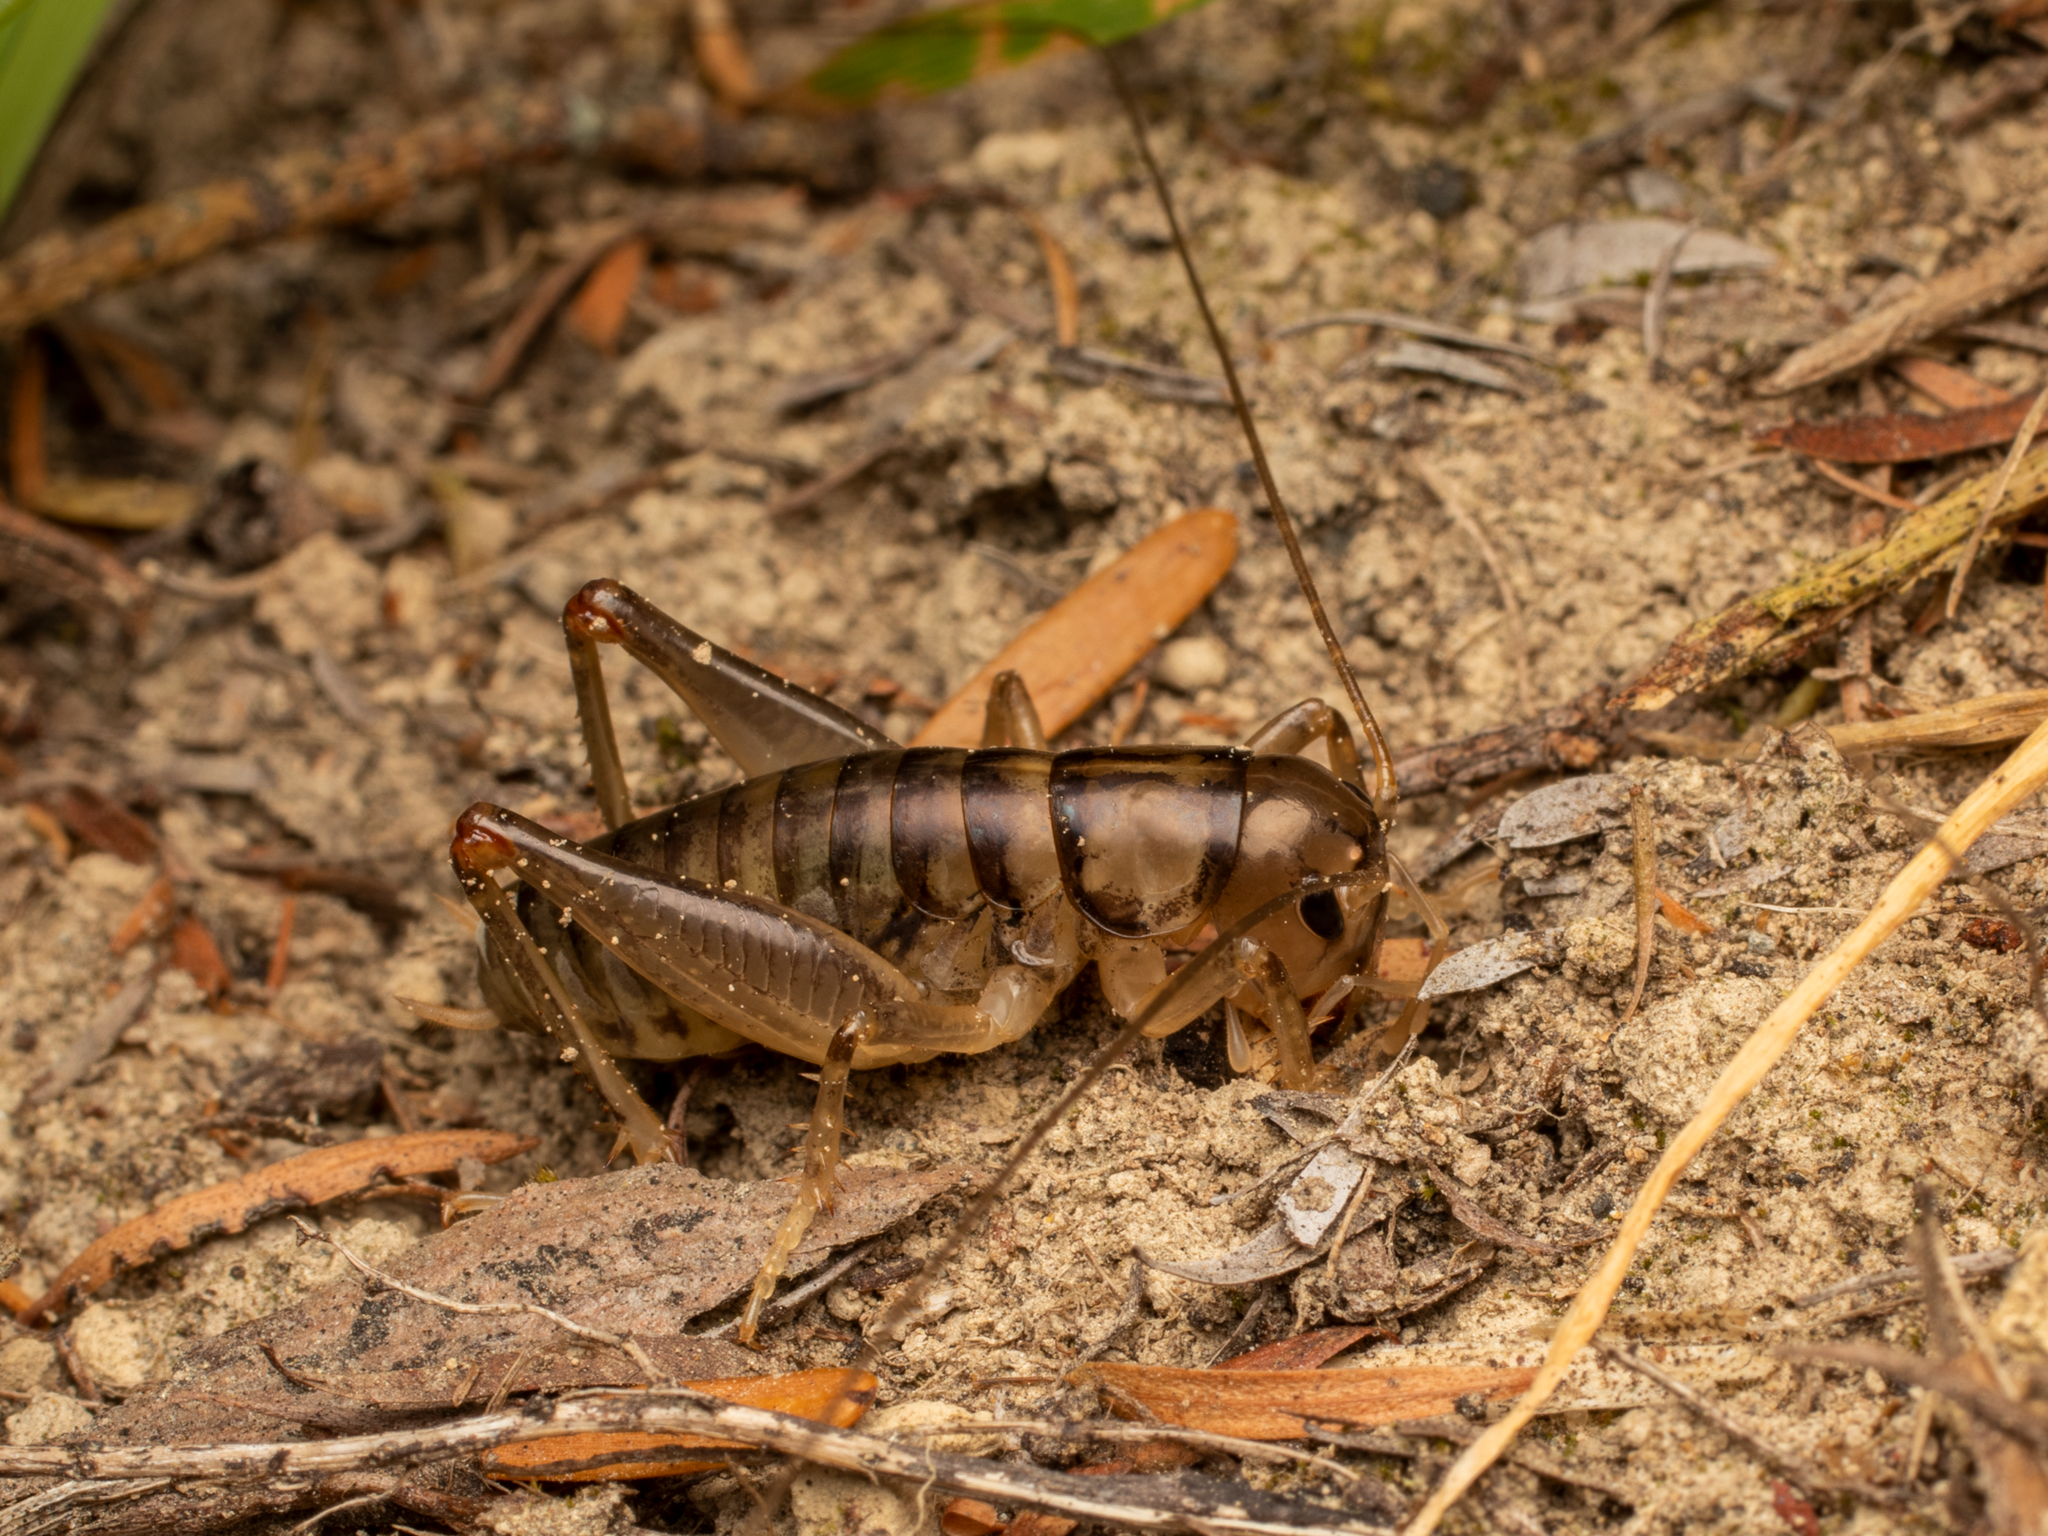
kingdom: Animalia
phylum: Arthropoda
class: Insecta
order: Orthoptera
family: Anostostomatidae
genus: Hemiandrus
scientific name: Hemiandrus celaeno
